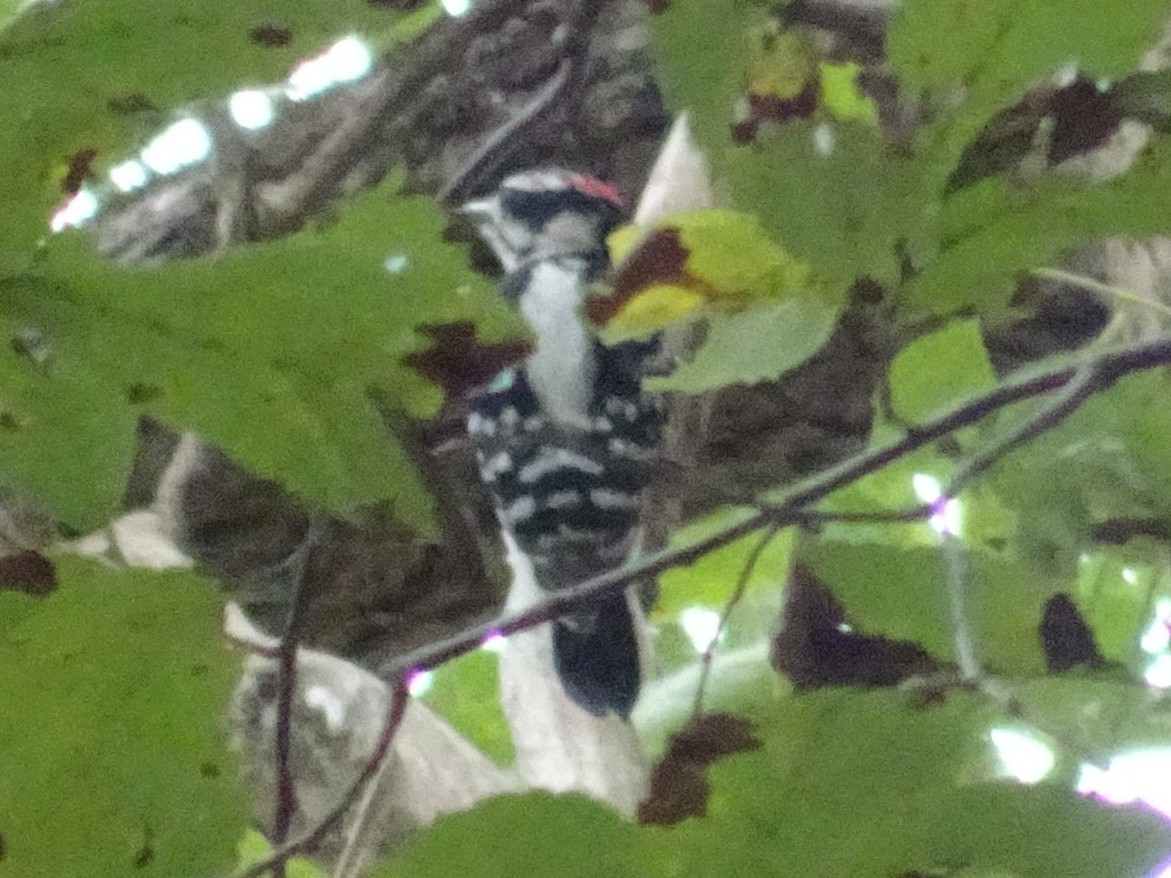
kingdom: Animalia
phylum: Chordata
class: Aves
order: Piciformes
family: Picidae
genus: Dryobates
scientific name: Dryobates pubescens
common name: Downy woodpecker
